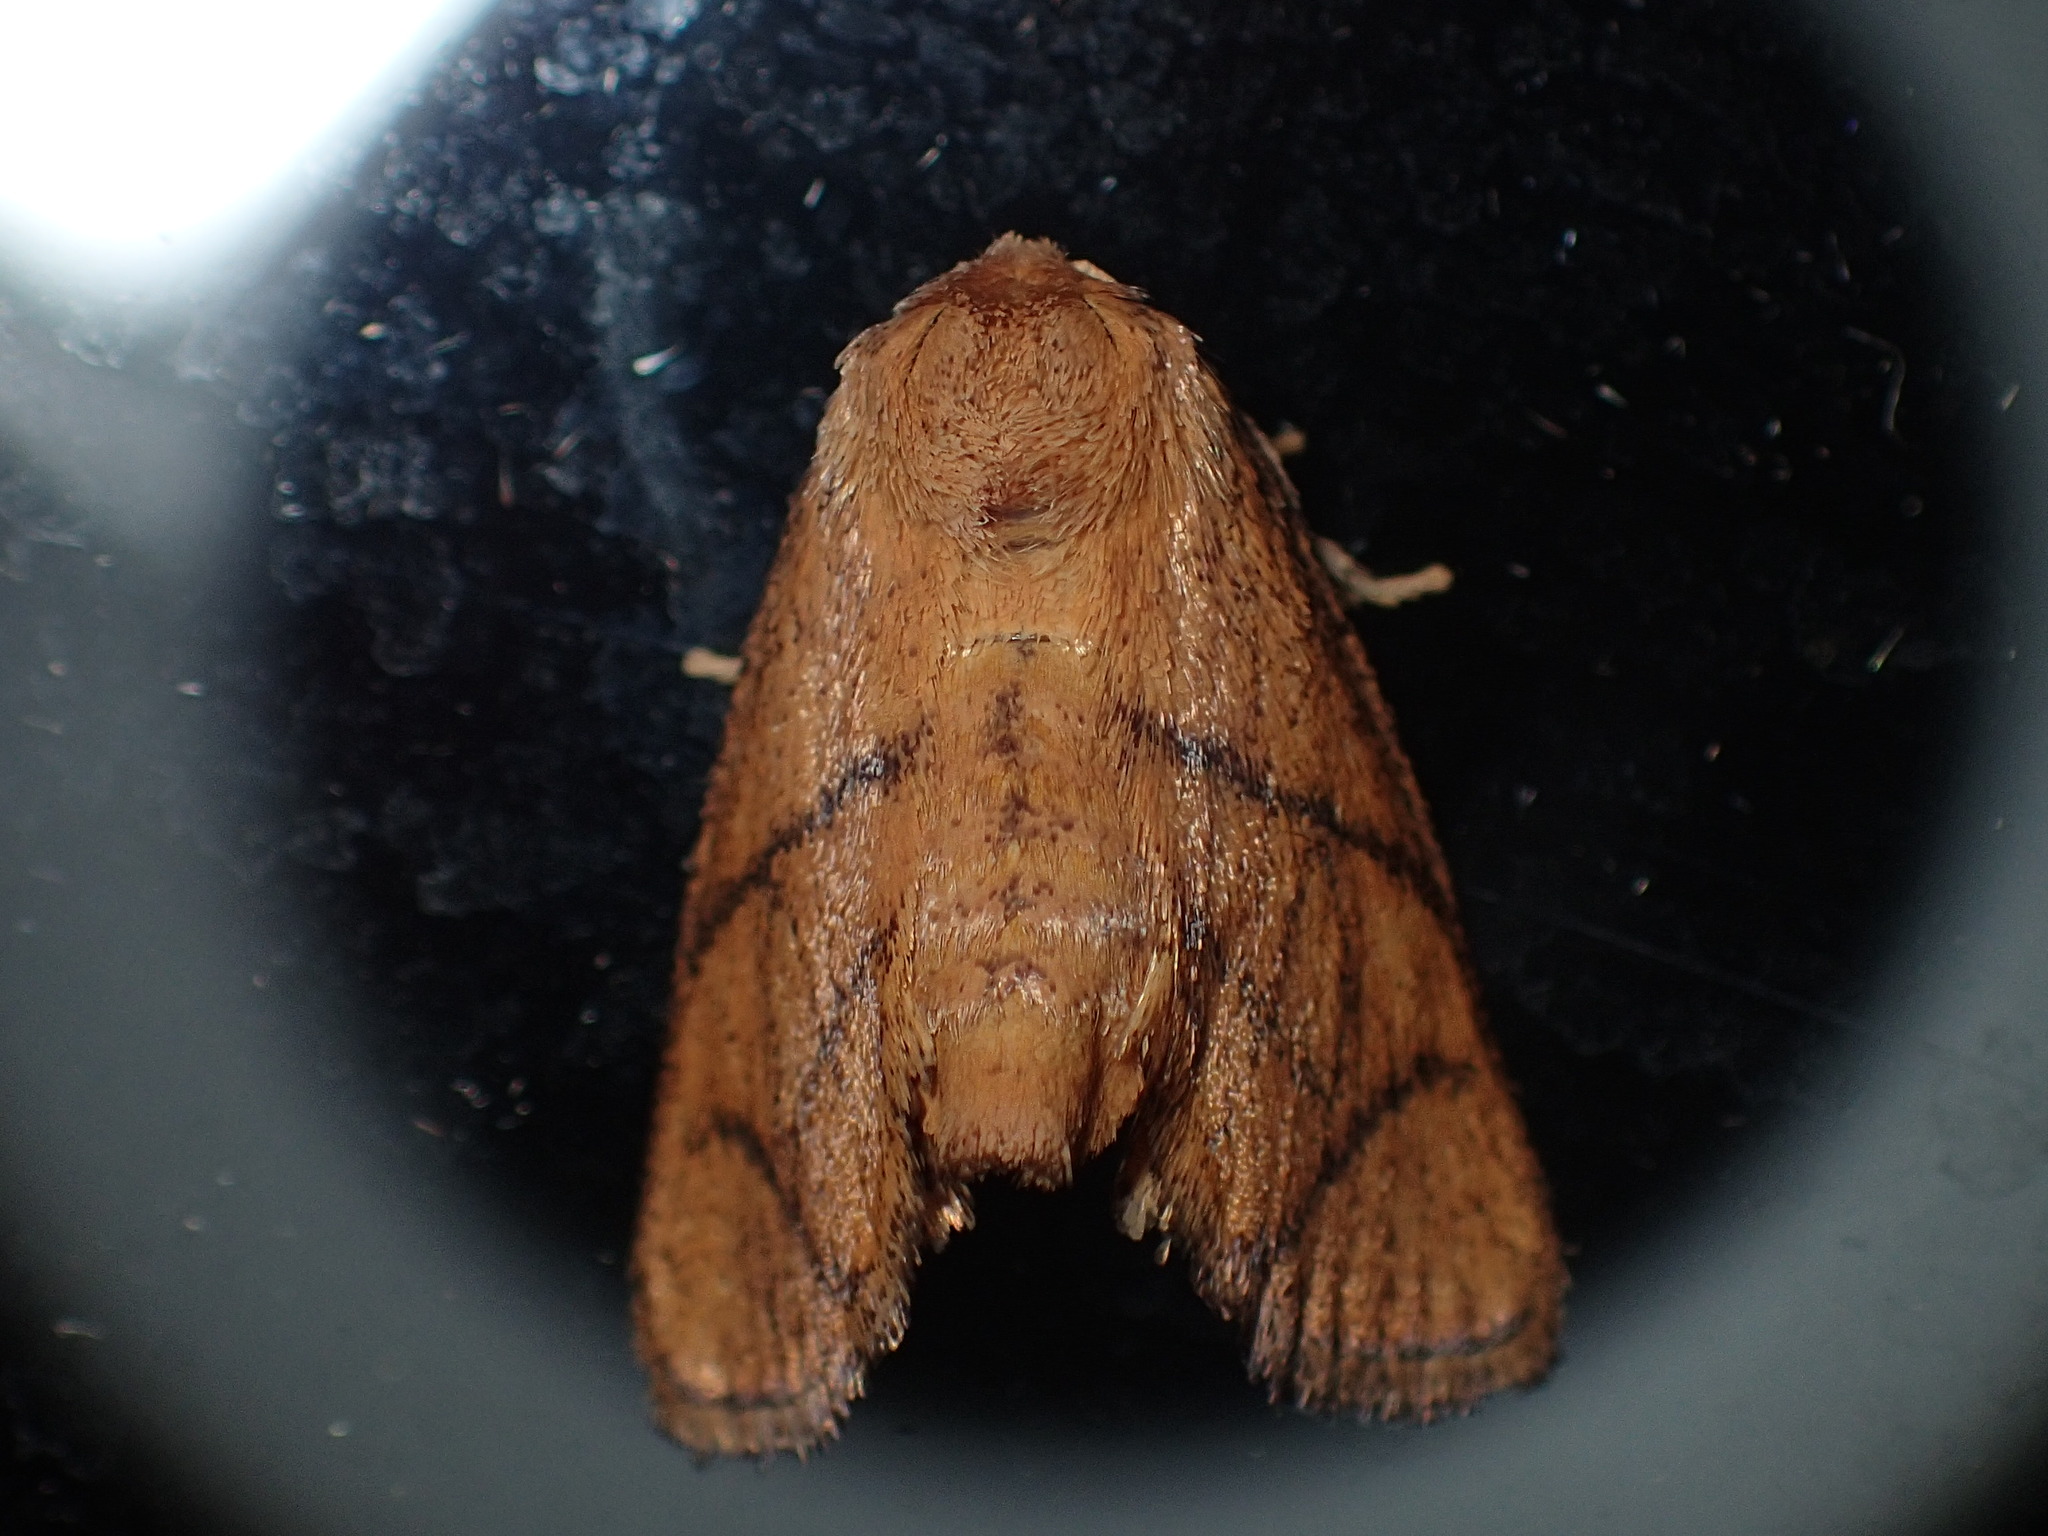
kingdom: Animalia
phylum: Arthropoda
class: Insecta
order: Lepidoptera
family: Limacodidae
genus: Apoda
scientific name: Apoda y-inversa
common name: Yellow-collared slug moth
